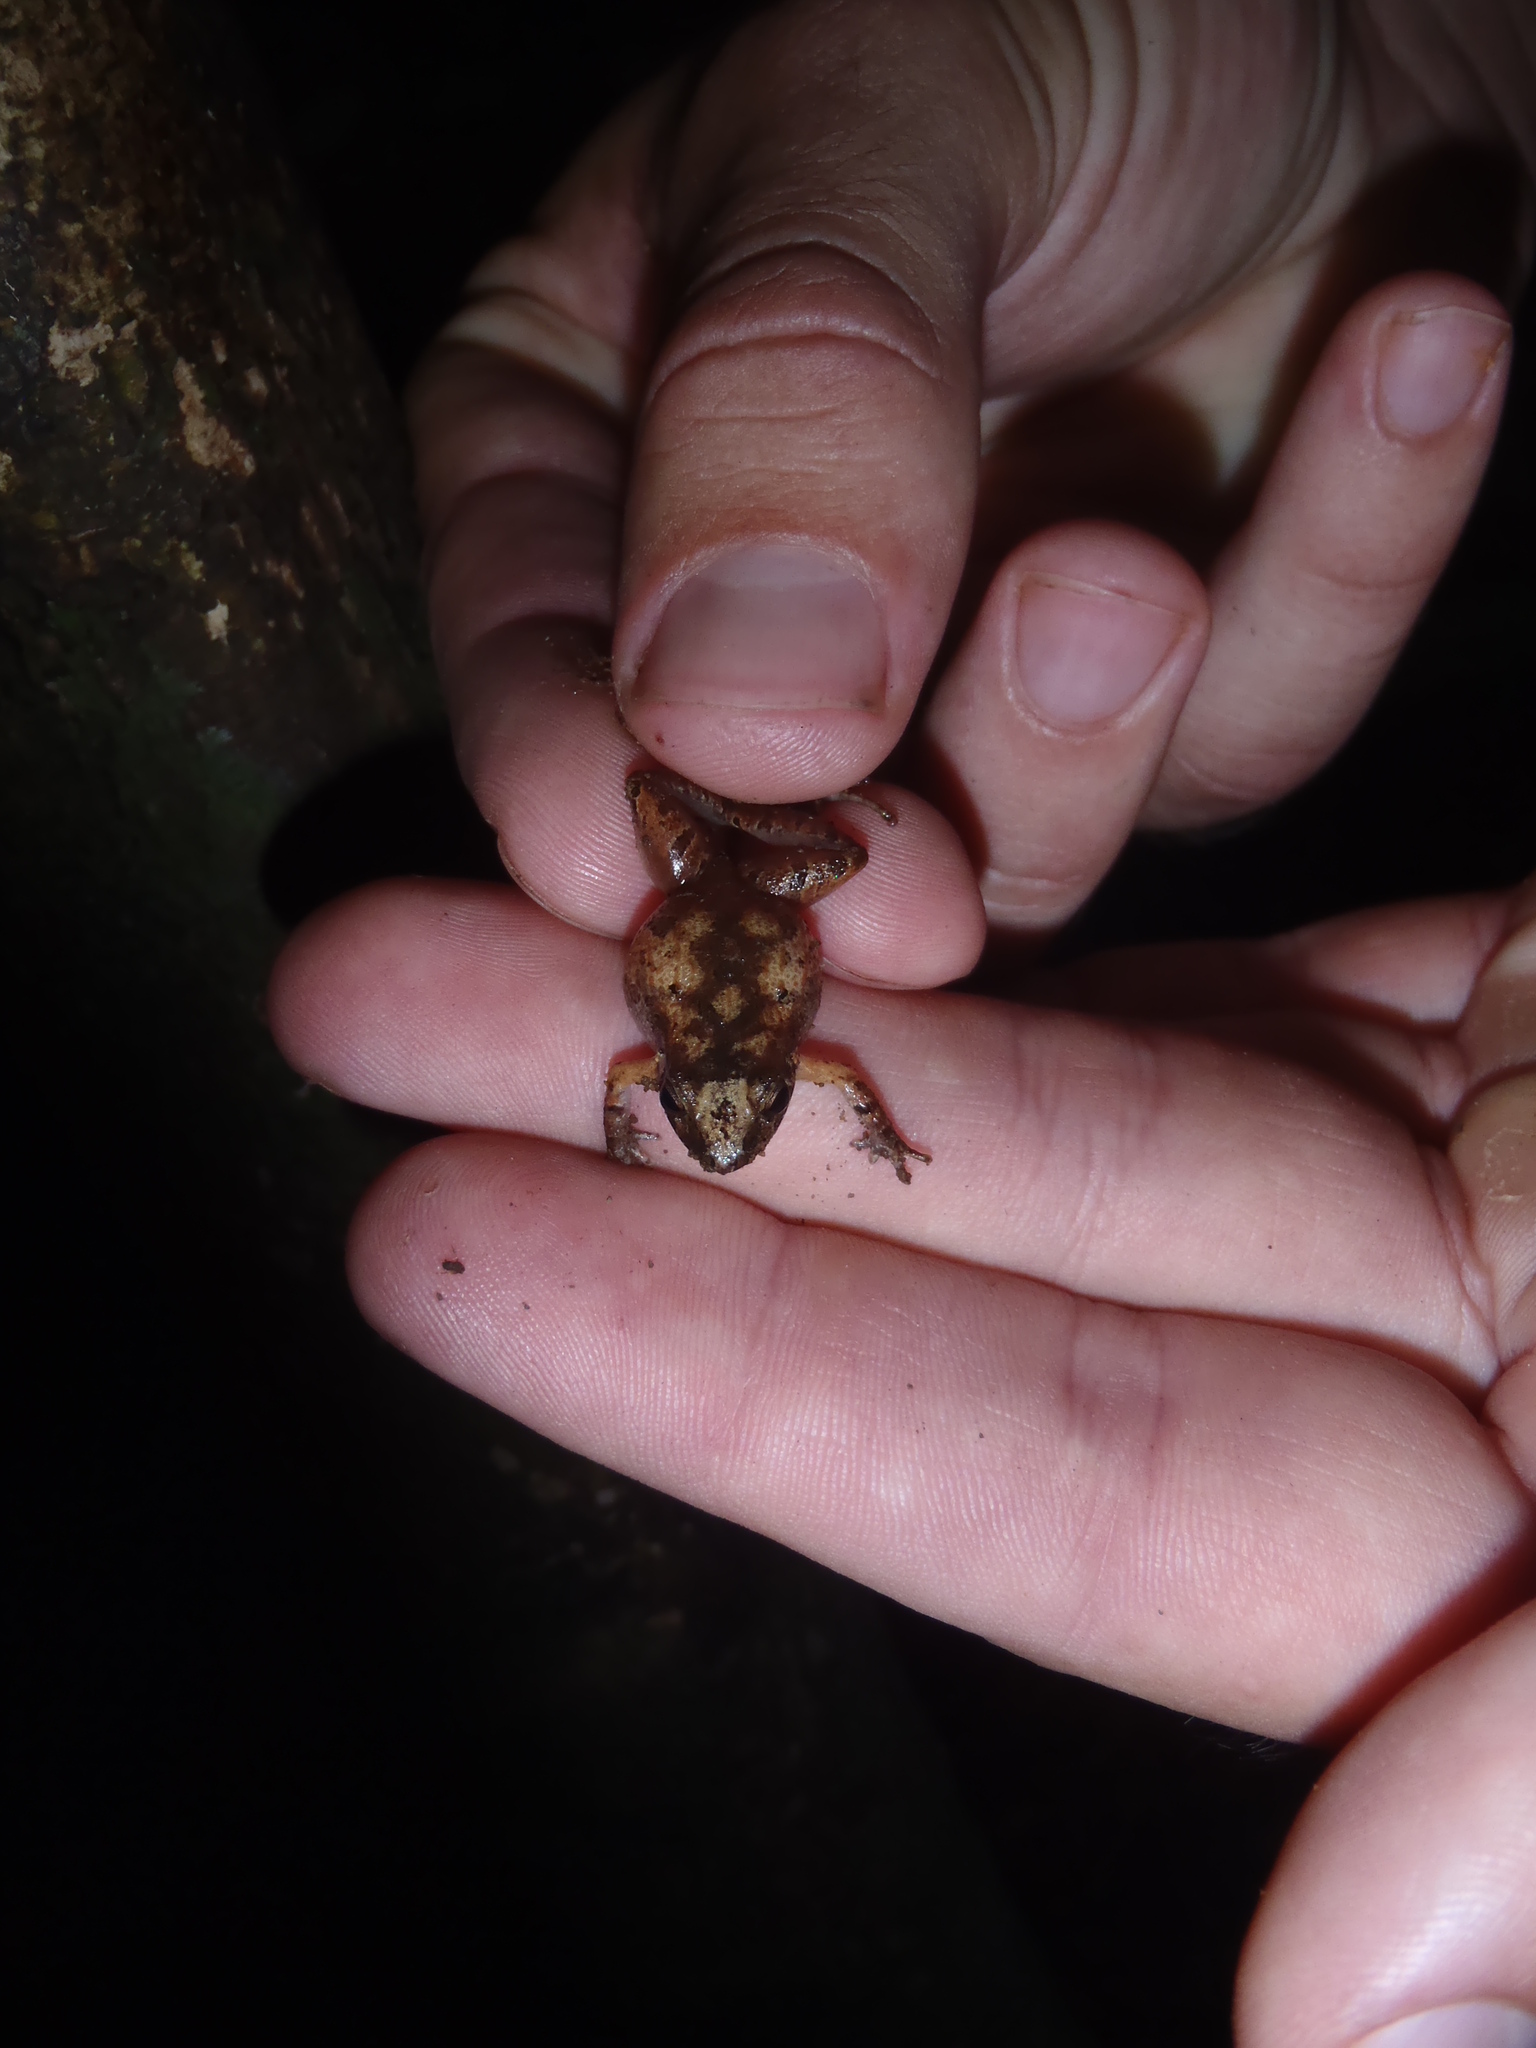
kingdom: Animalia
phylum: Chordata
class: Amphibia
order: Anura
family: Craugastoridae
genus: Craugastor
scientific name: Craugastor lauraster
